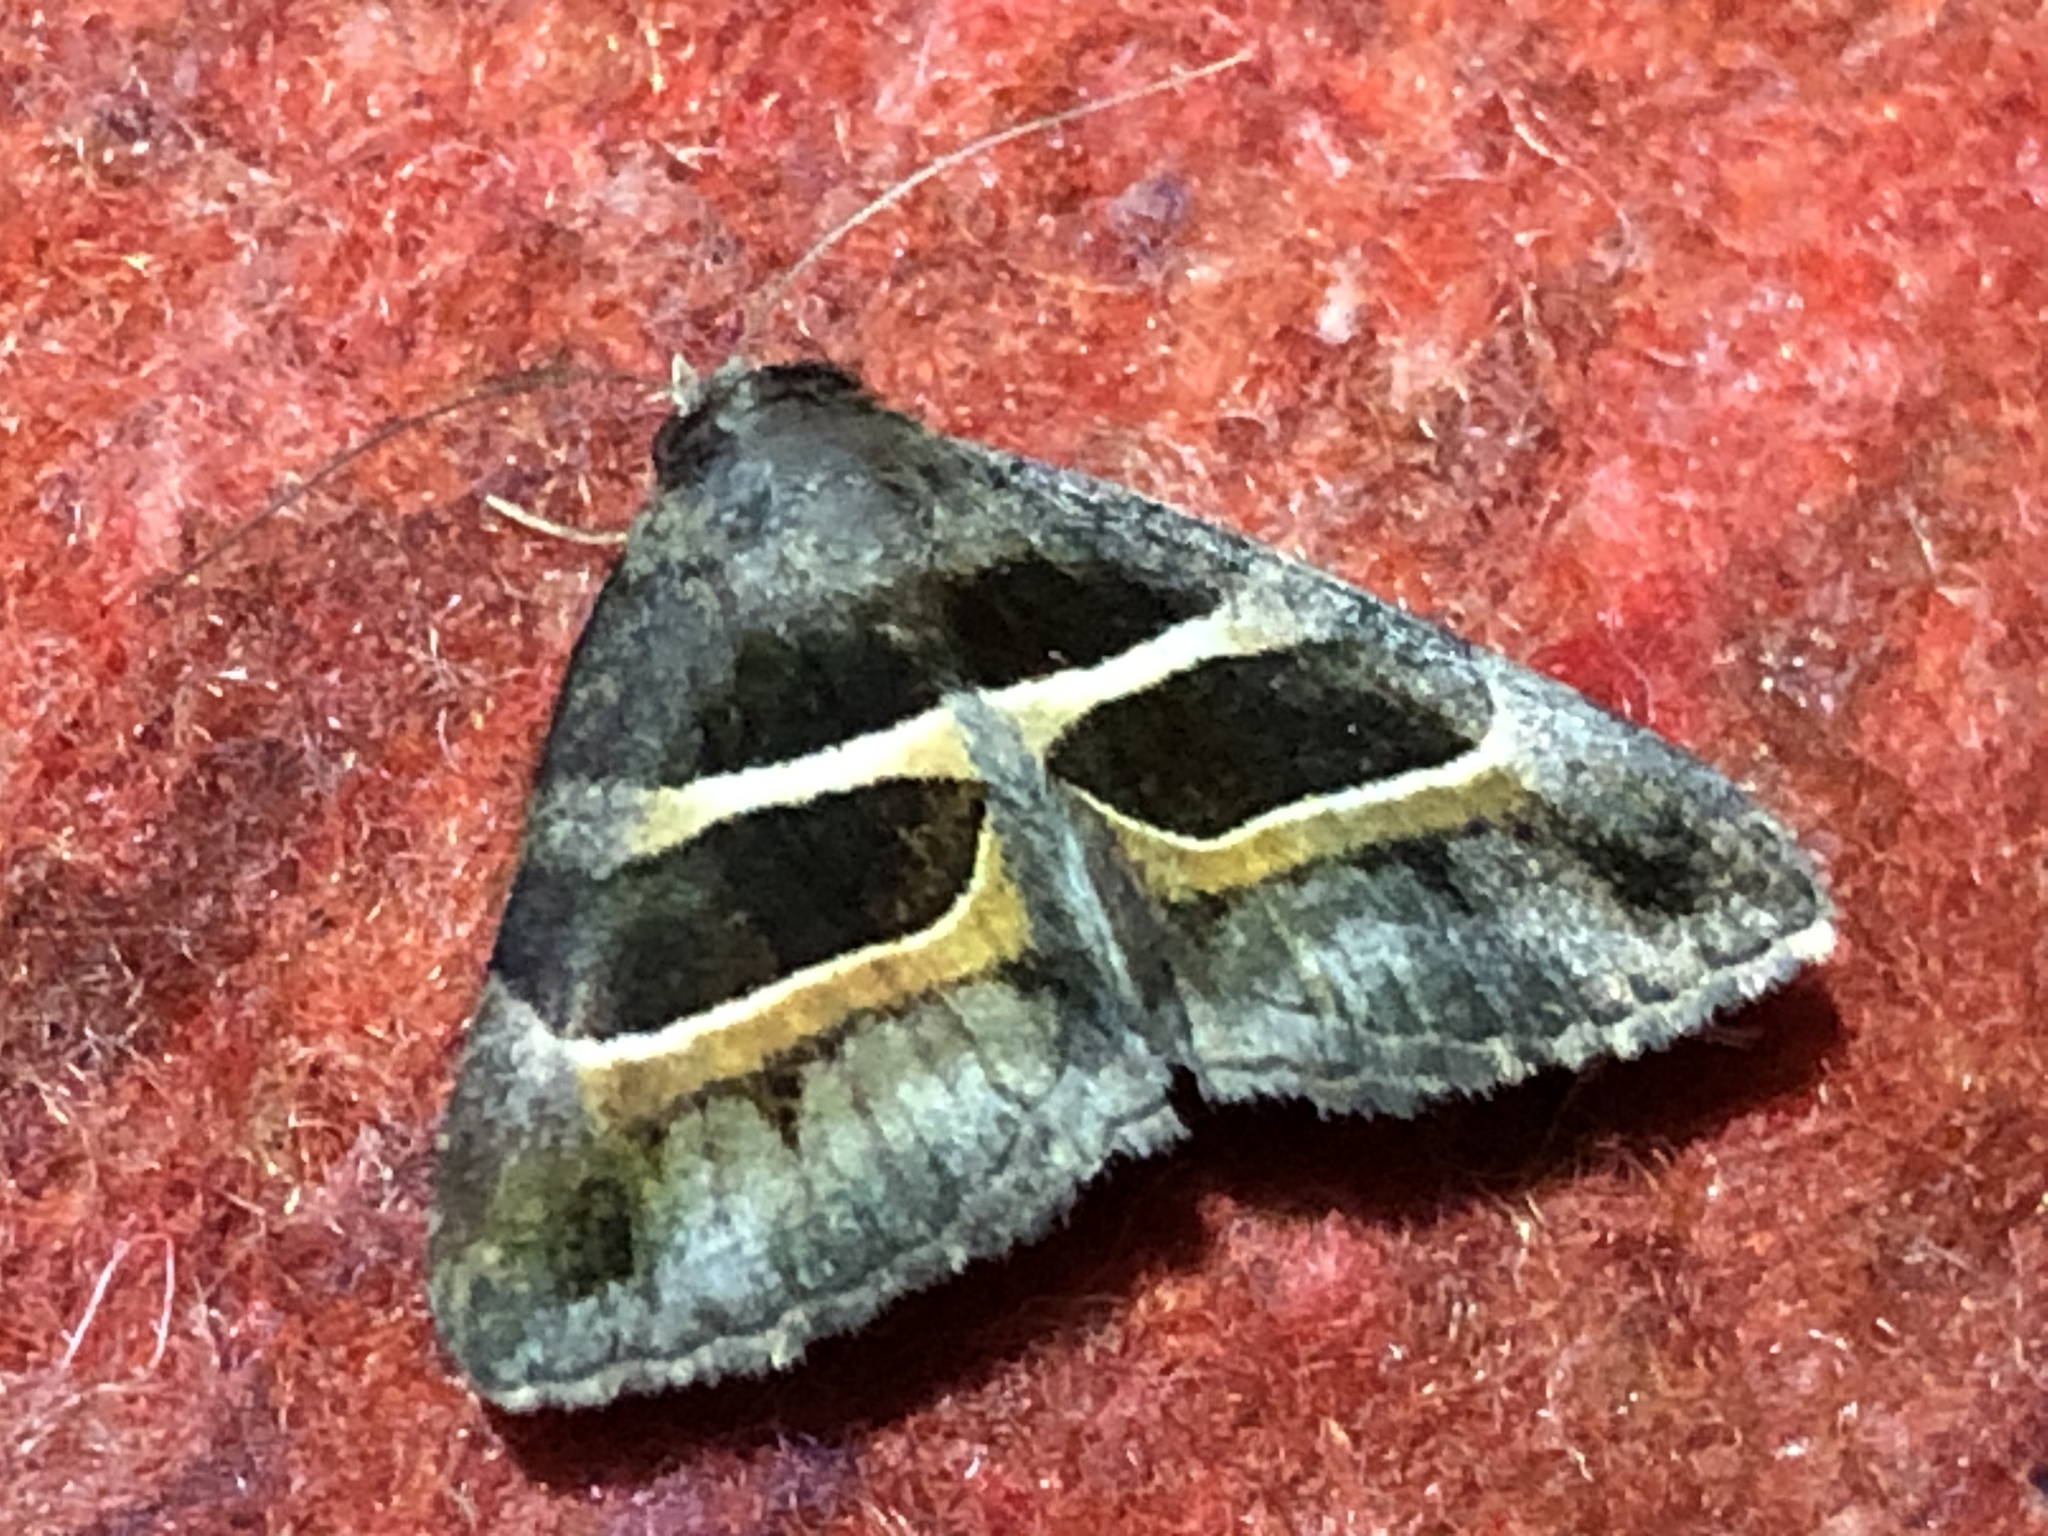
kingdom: Animalia
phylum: Arthropoda
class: Insecta
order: Lepidoptera
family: Erebidae
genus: Grammodes
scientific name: Grammodes congenita
